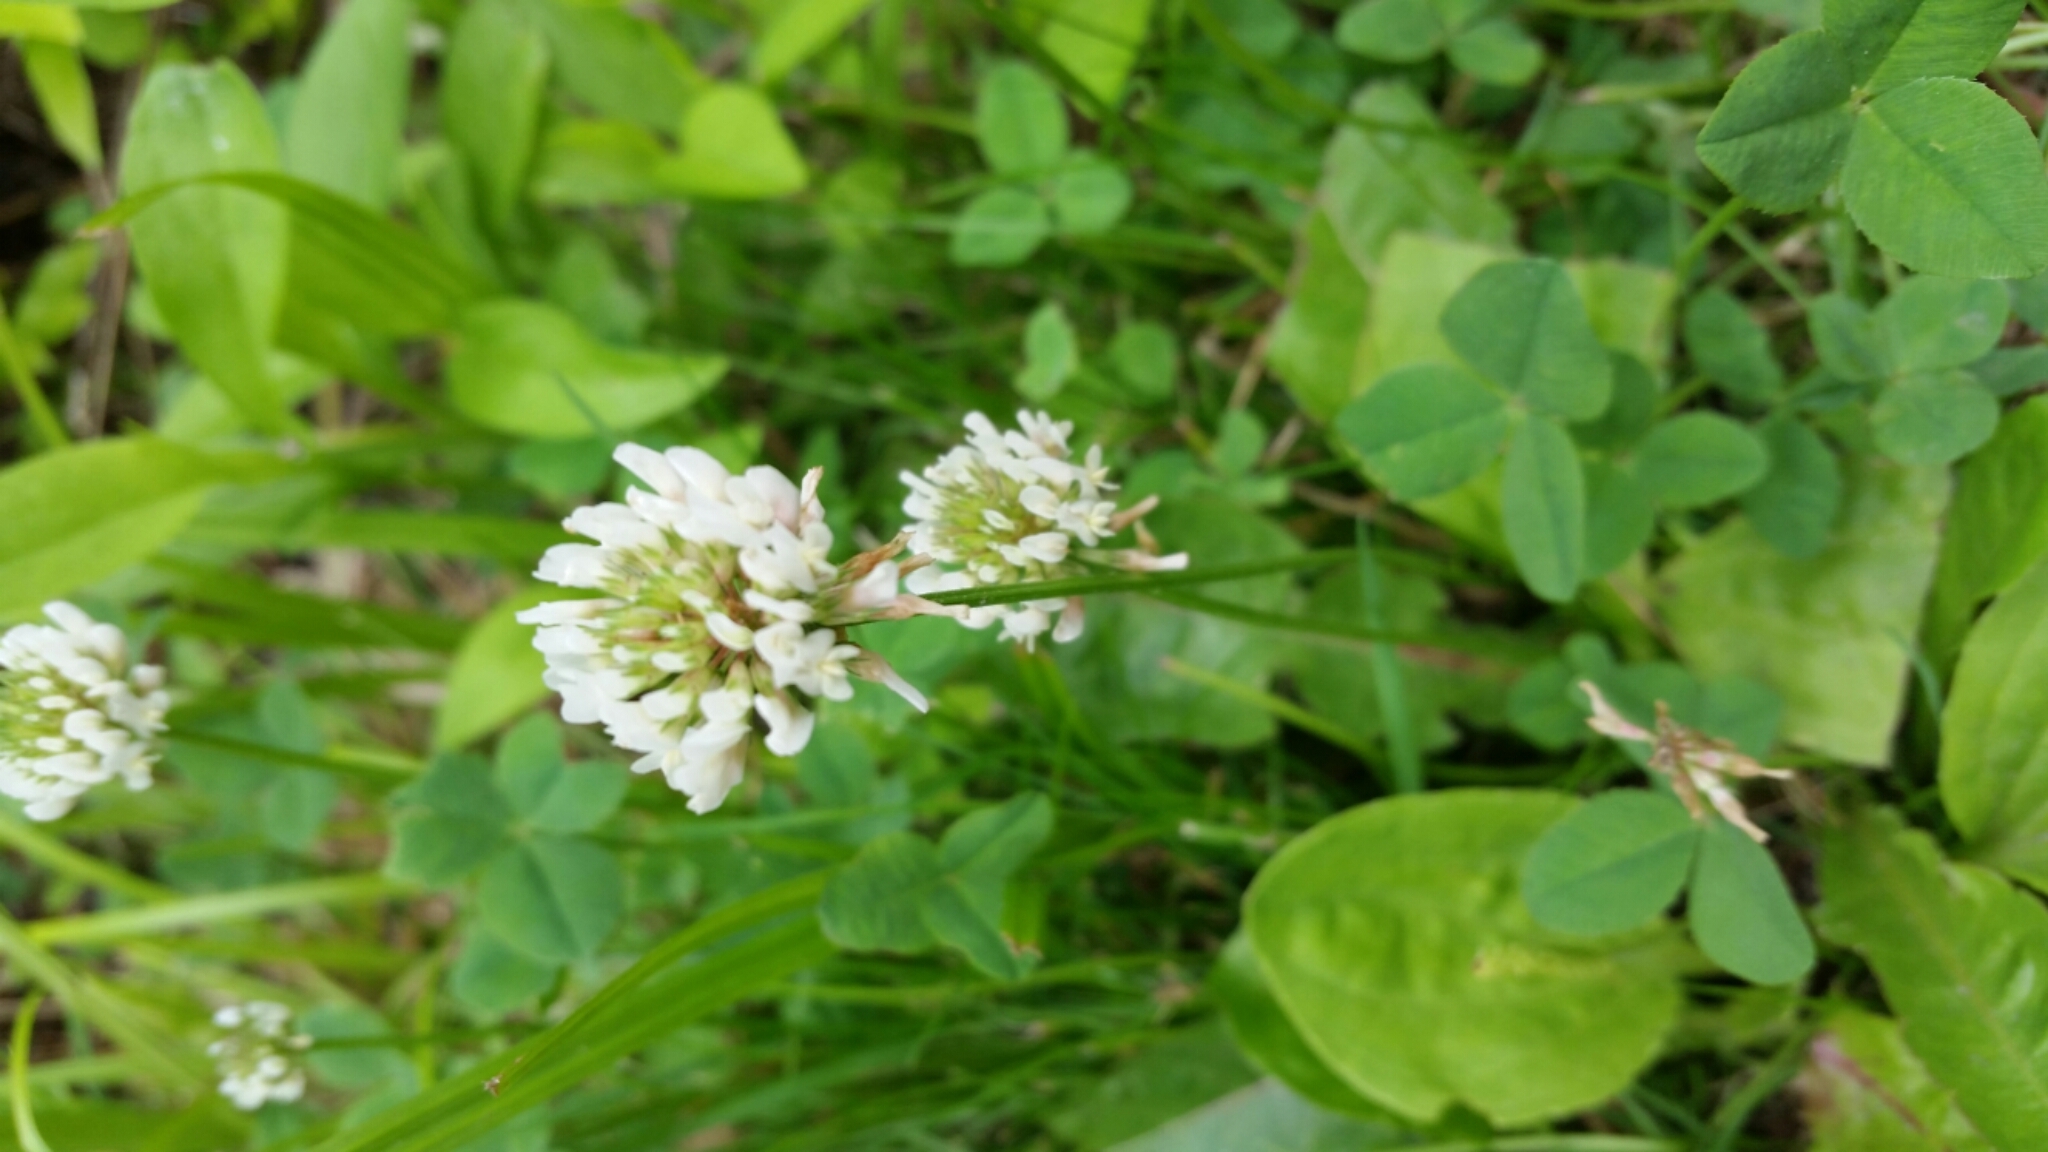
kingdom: Plantae
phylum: Tracheophyta
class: Magnoliopsida
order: Fabales
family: Fabaceae
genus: Trifolium
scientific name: Trifolium repens
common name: White clover
